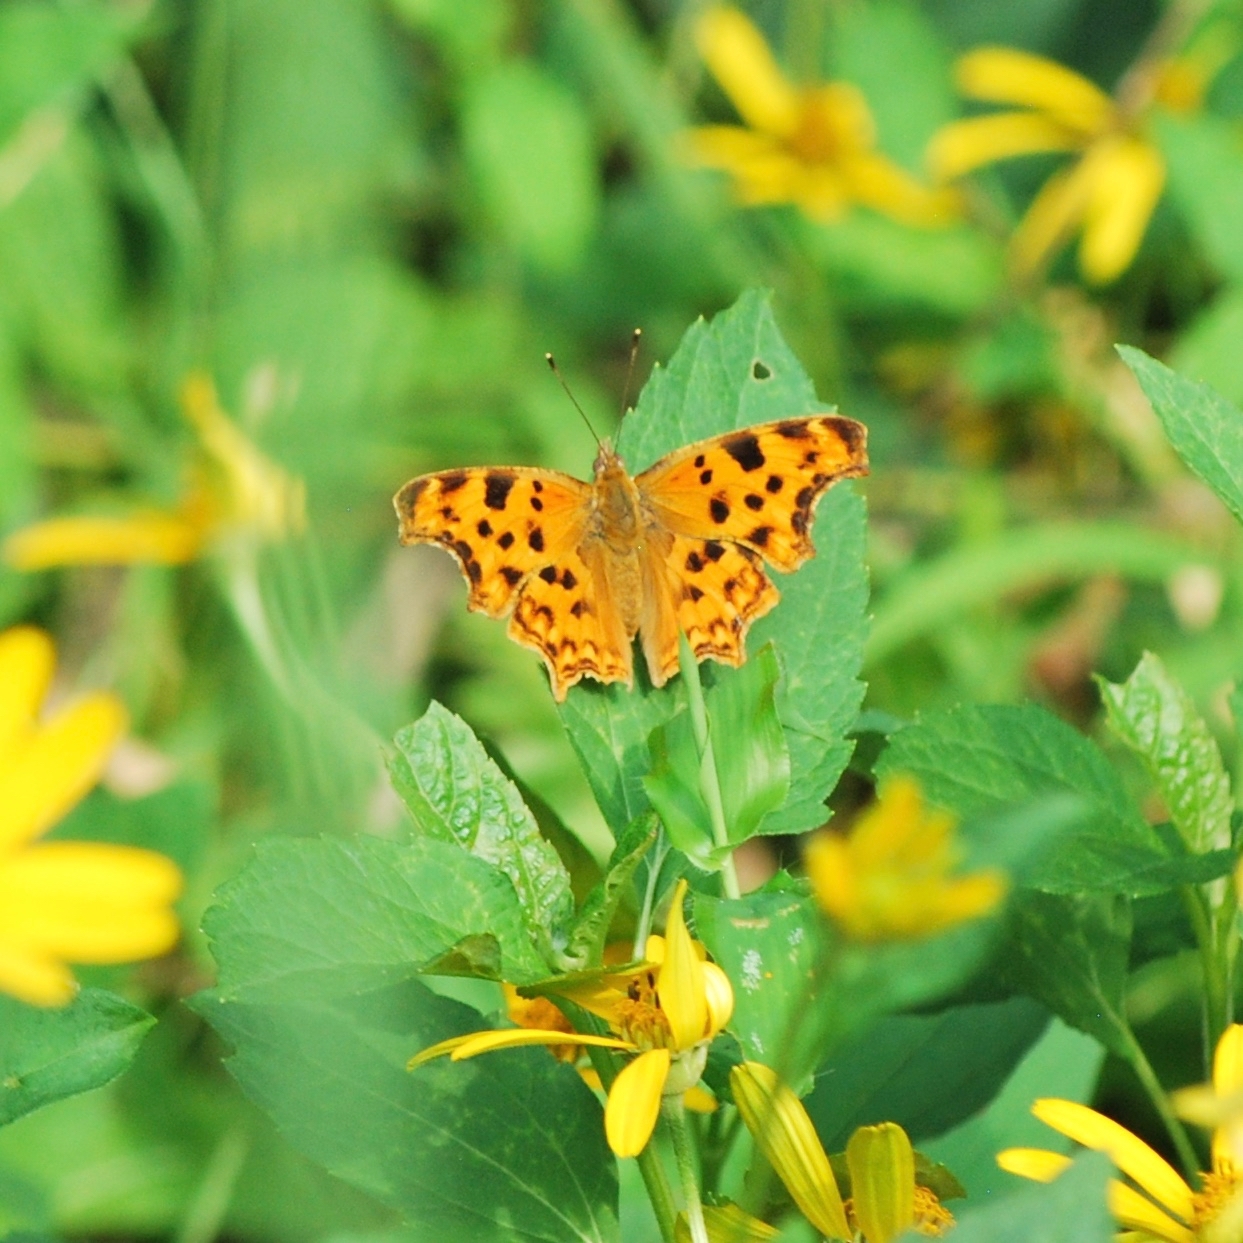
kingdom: Animalia
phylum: Arthropoda
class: Insecta
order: Lepidoptera
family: Nymphalidae
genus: Polygonia
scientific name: Polygonia c-album
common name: Comma
